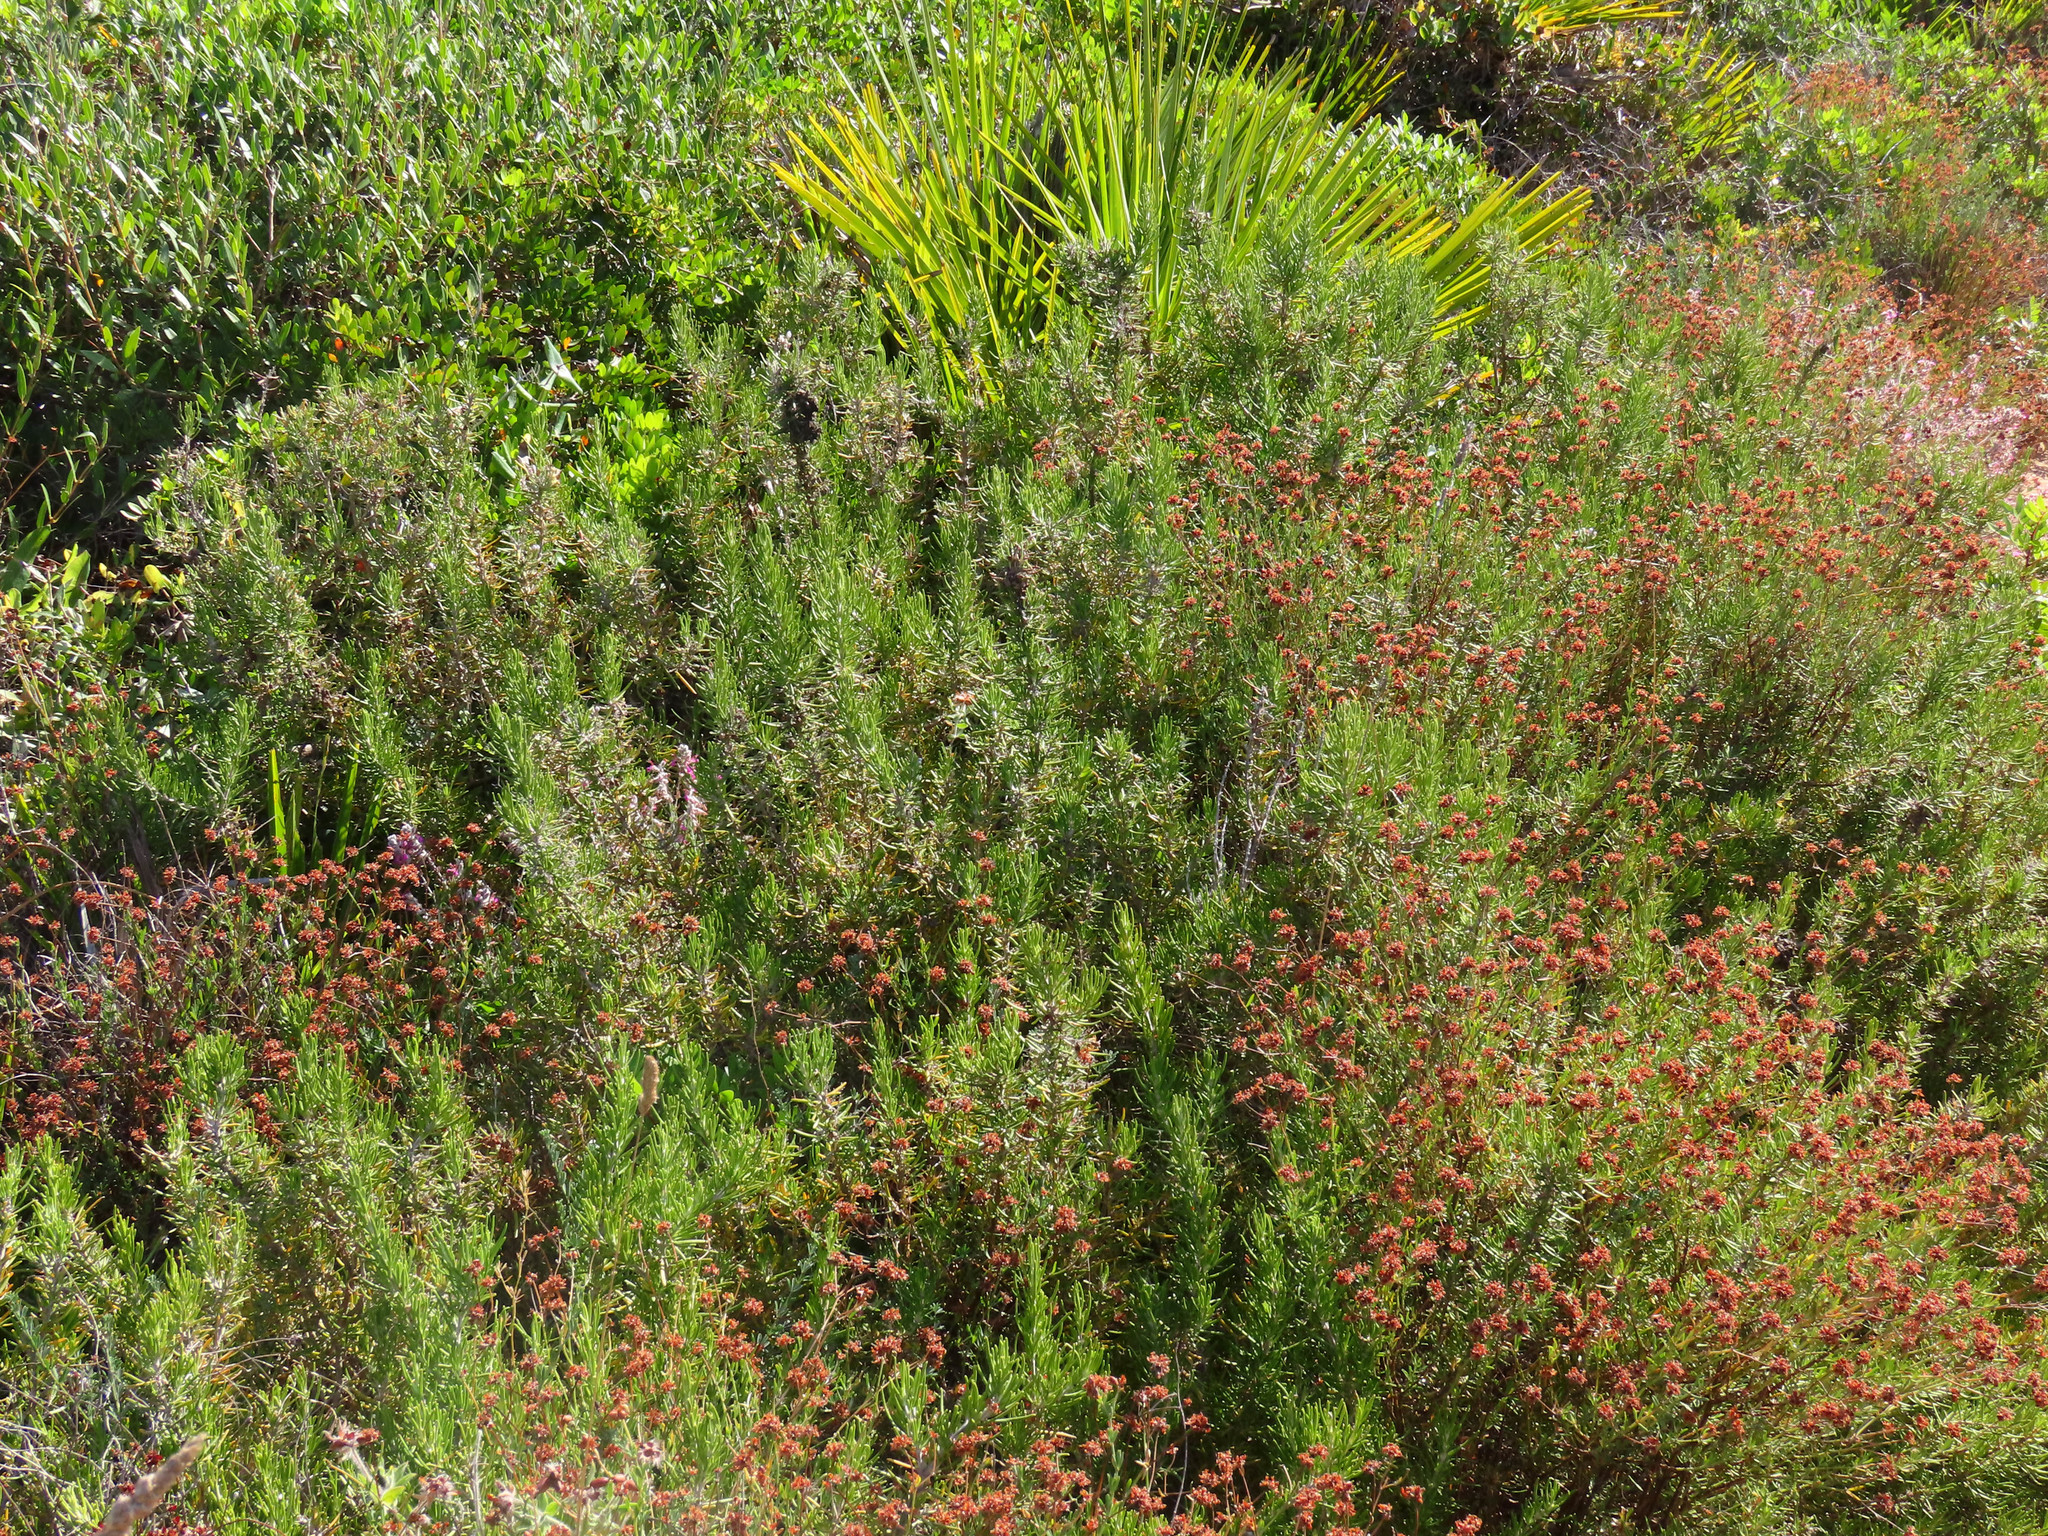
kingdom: Plantae
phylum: Tracheophyta
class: Magnoliopsida
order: Lamiales
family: Lamiaceae
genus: Salvia
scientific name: Salvia rosmarinus
